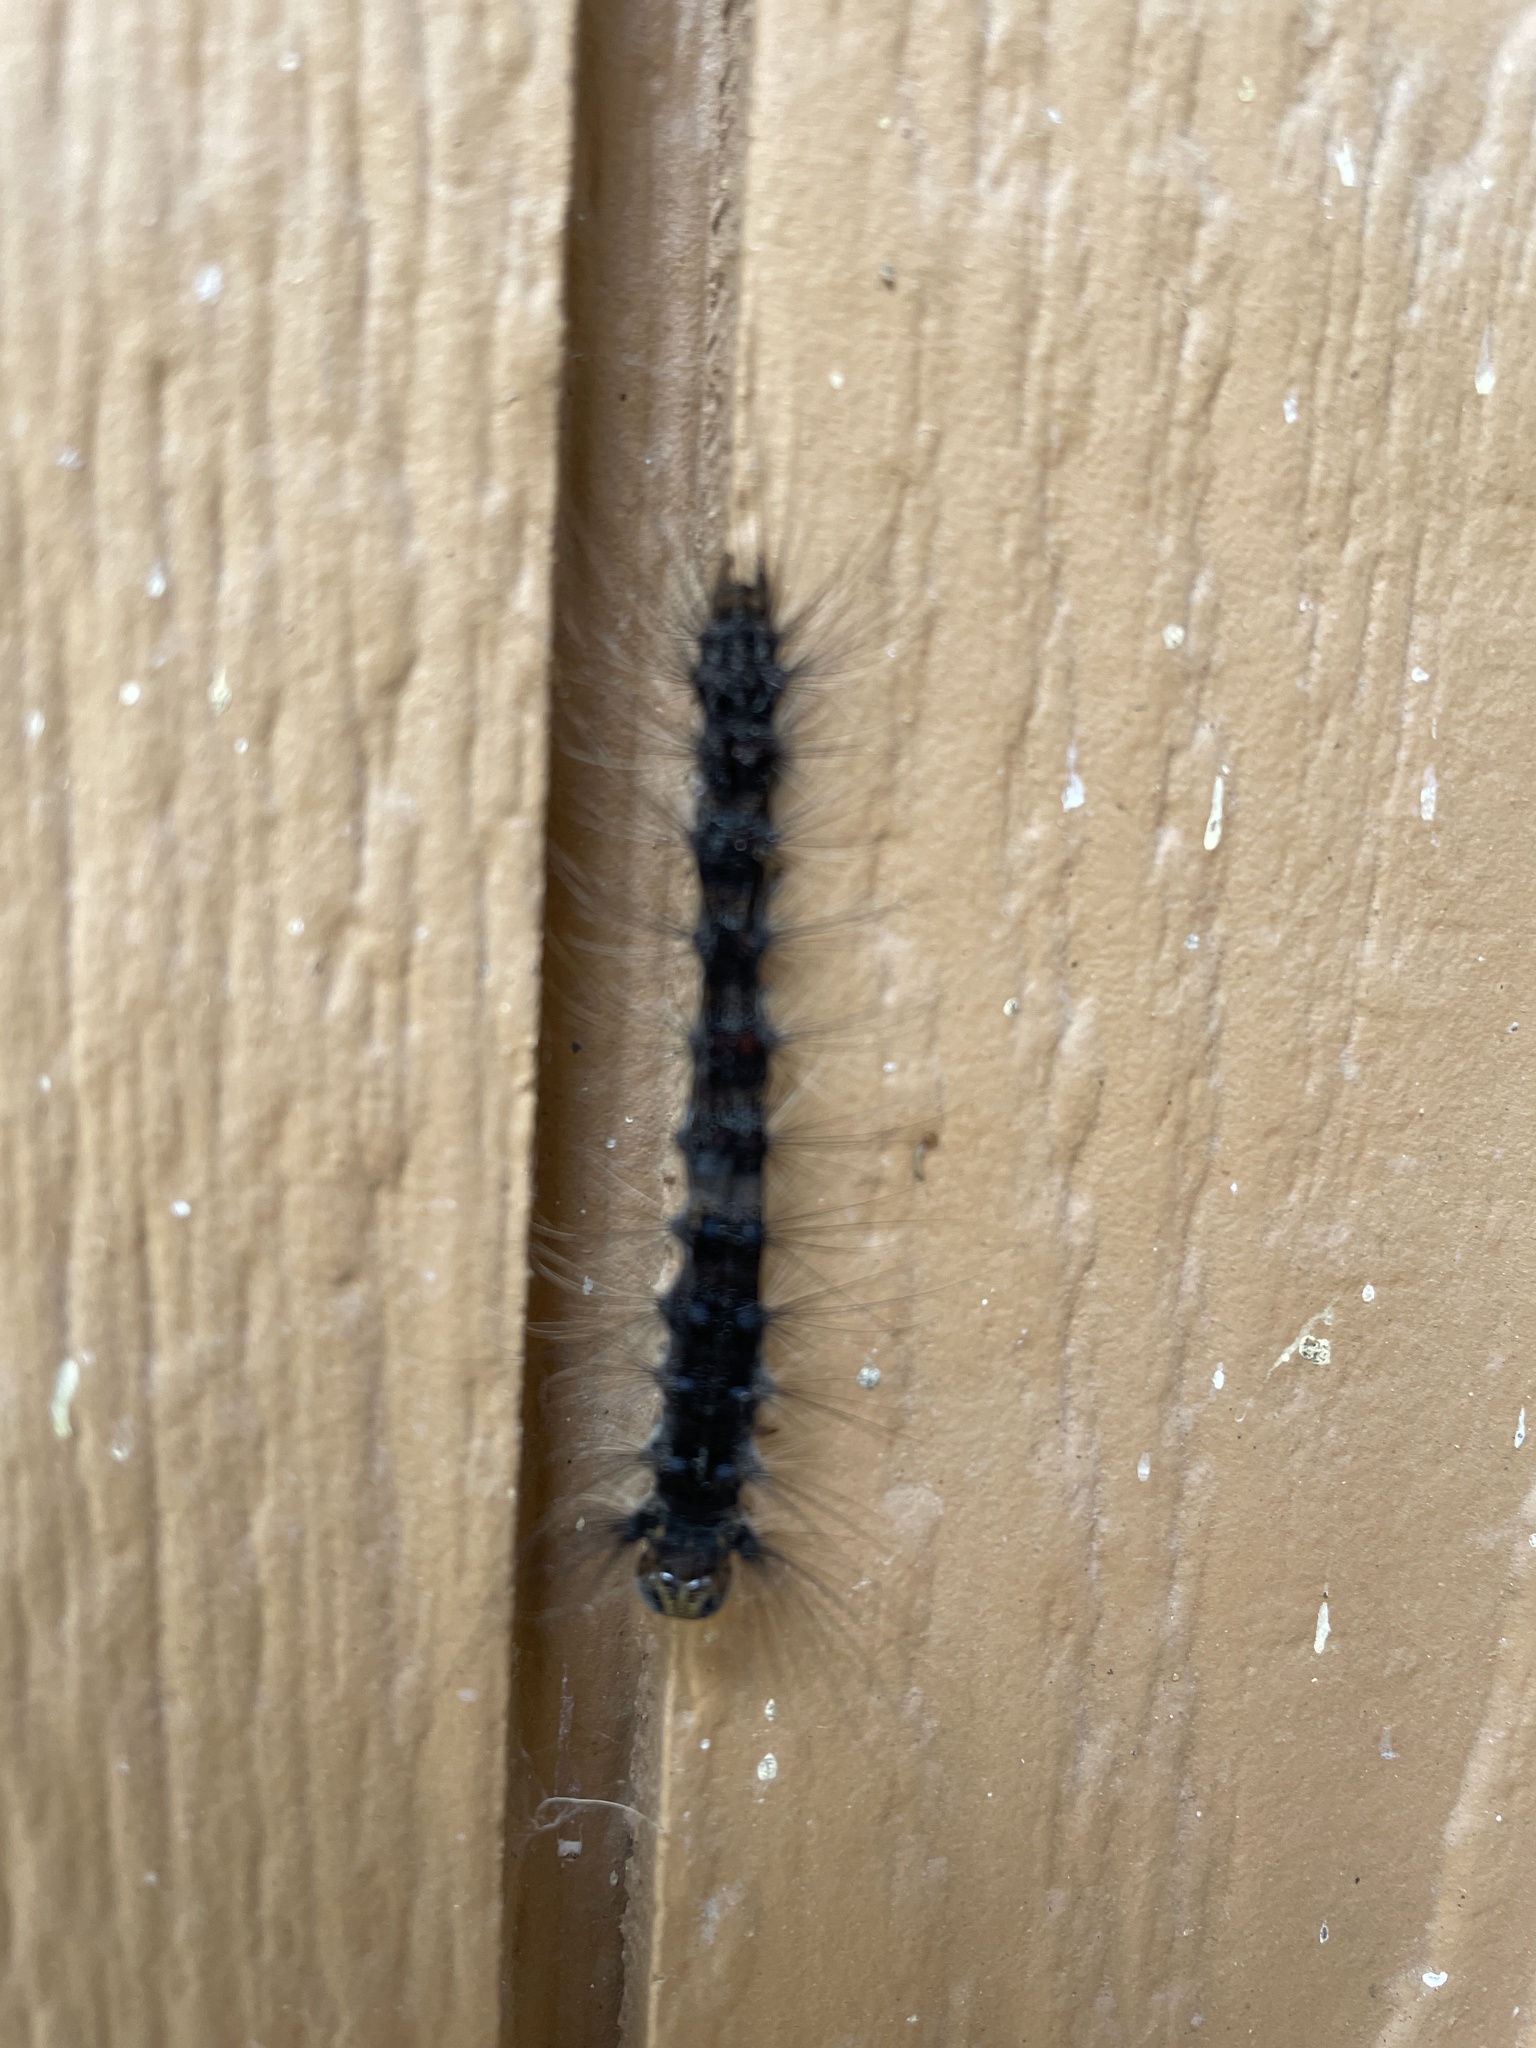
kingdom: Animalia
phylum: Arthropoda
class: Insecta
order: Lepidoptera
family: Erebidae
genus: Lymantria
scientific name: Lymantria dispar
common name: Gypsy moth
